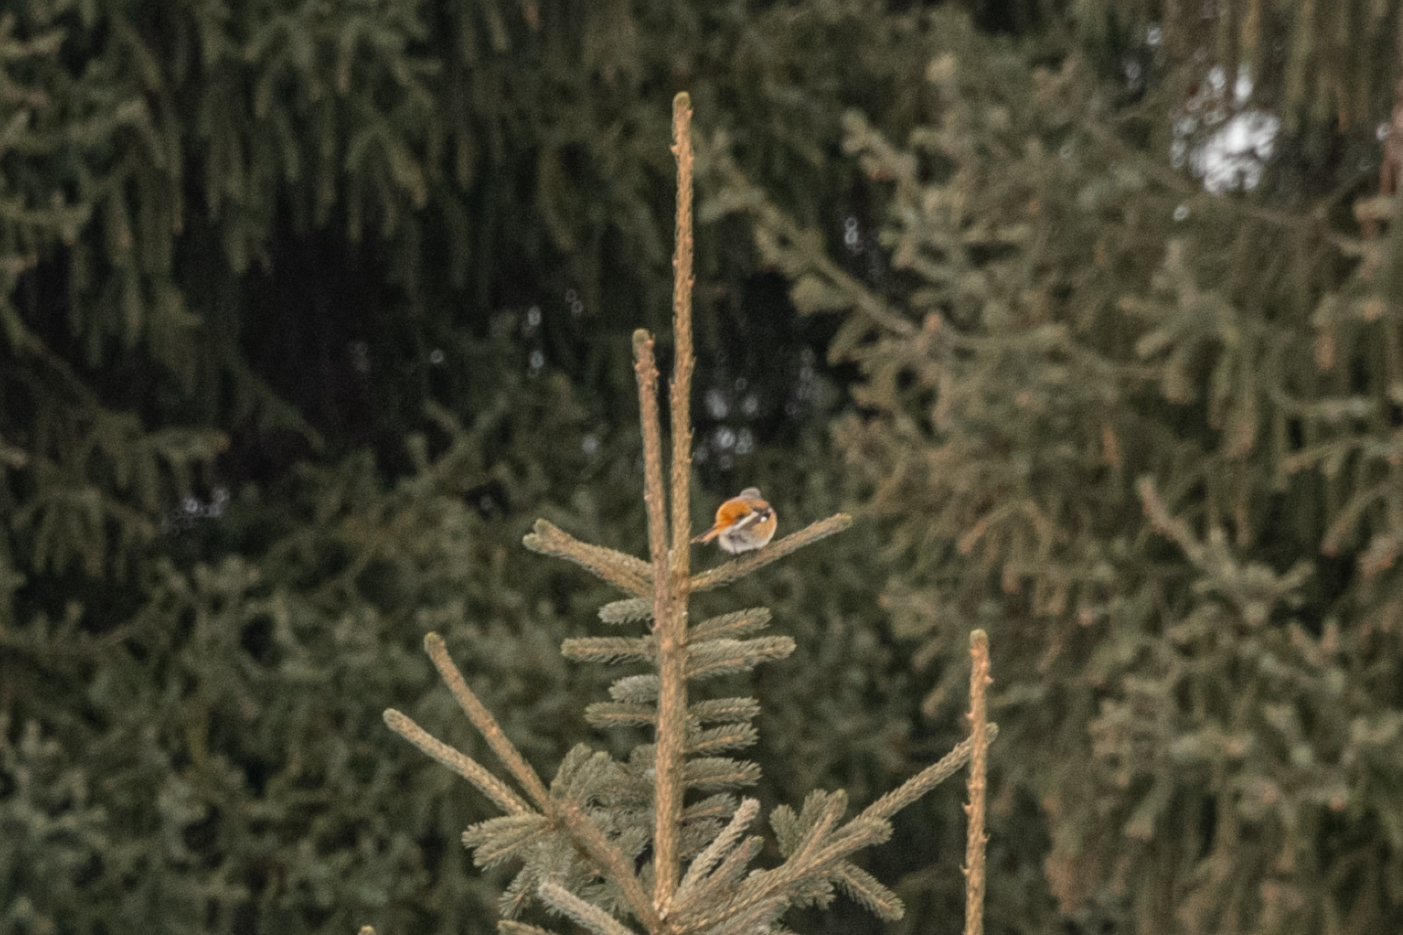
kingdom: Animalia
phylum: Chordata
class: Aves
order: Passeriformes
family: Muscicapidae
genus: Phoenicurus
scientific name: Phoenicurus erythronotus
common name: Eversmann's redstart
